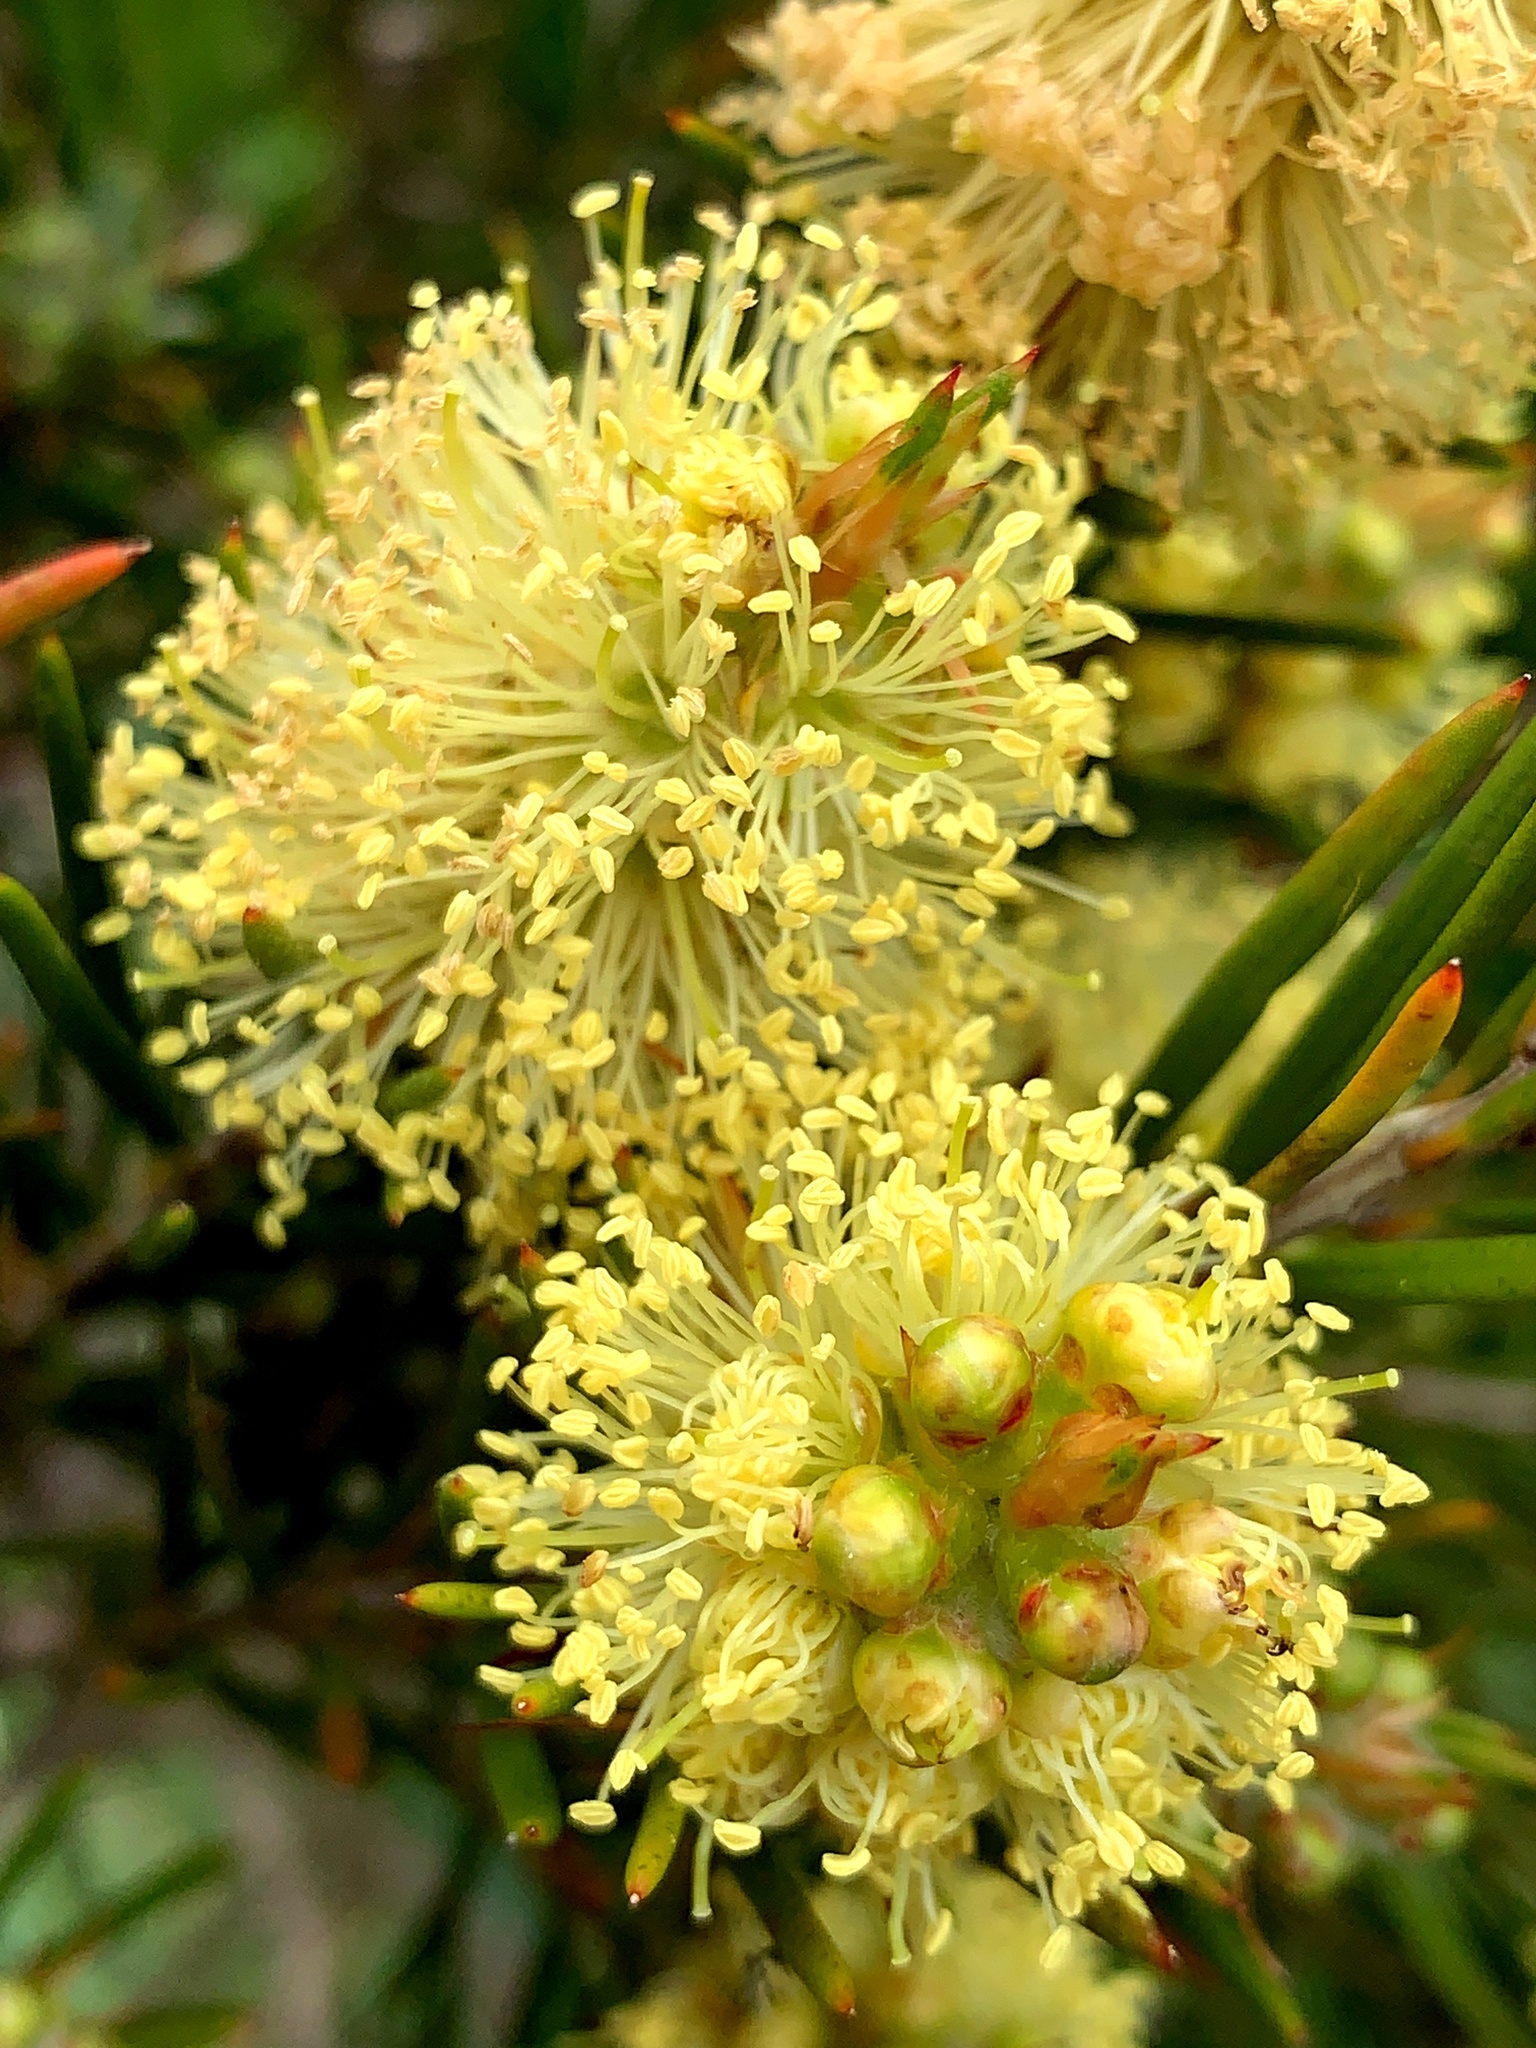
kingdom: Plantae
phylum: Tracheophyta
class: Magnoliopsida
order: Myrtales
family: Myrtaceae
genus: Callistemon
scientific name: Callistemon pityoides
